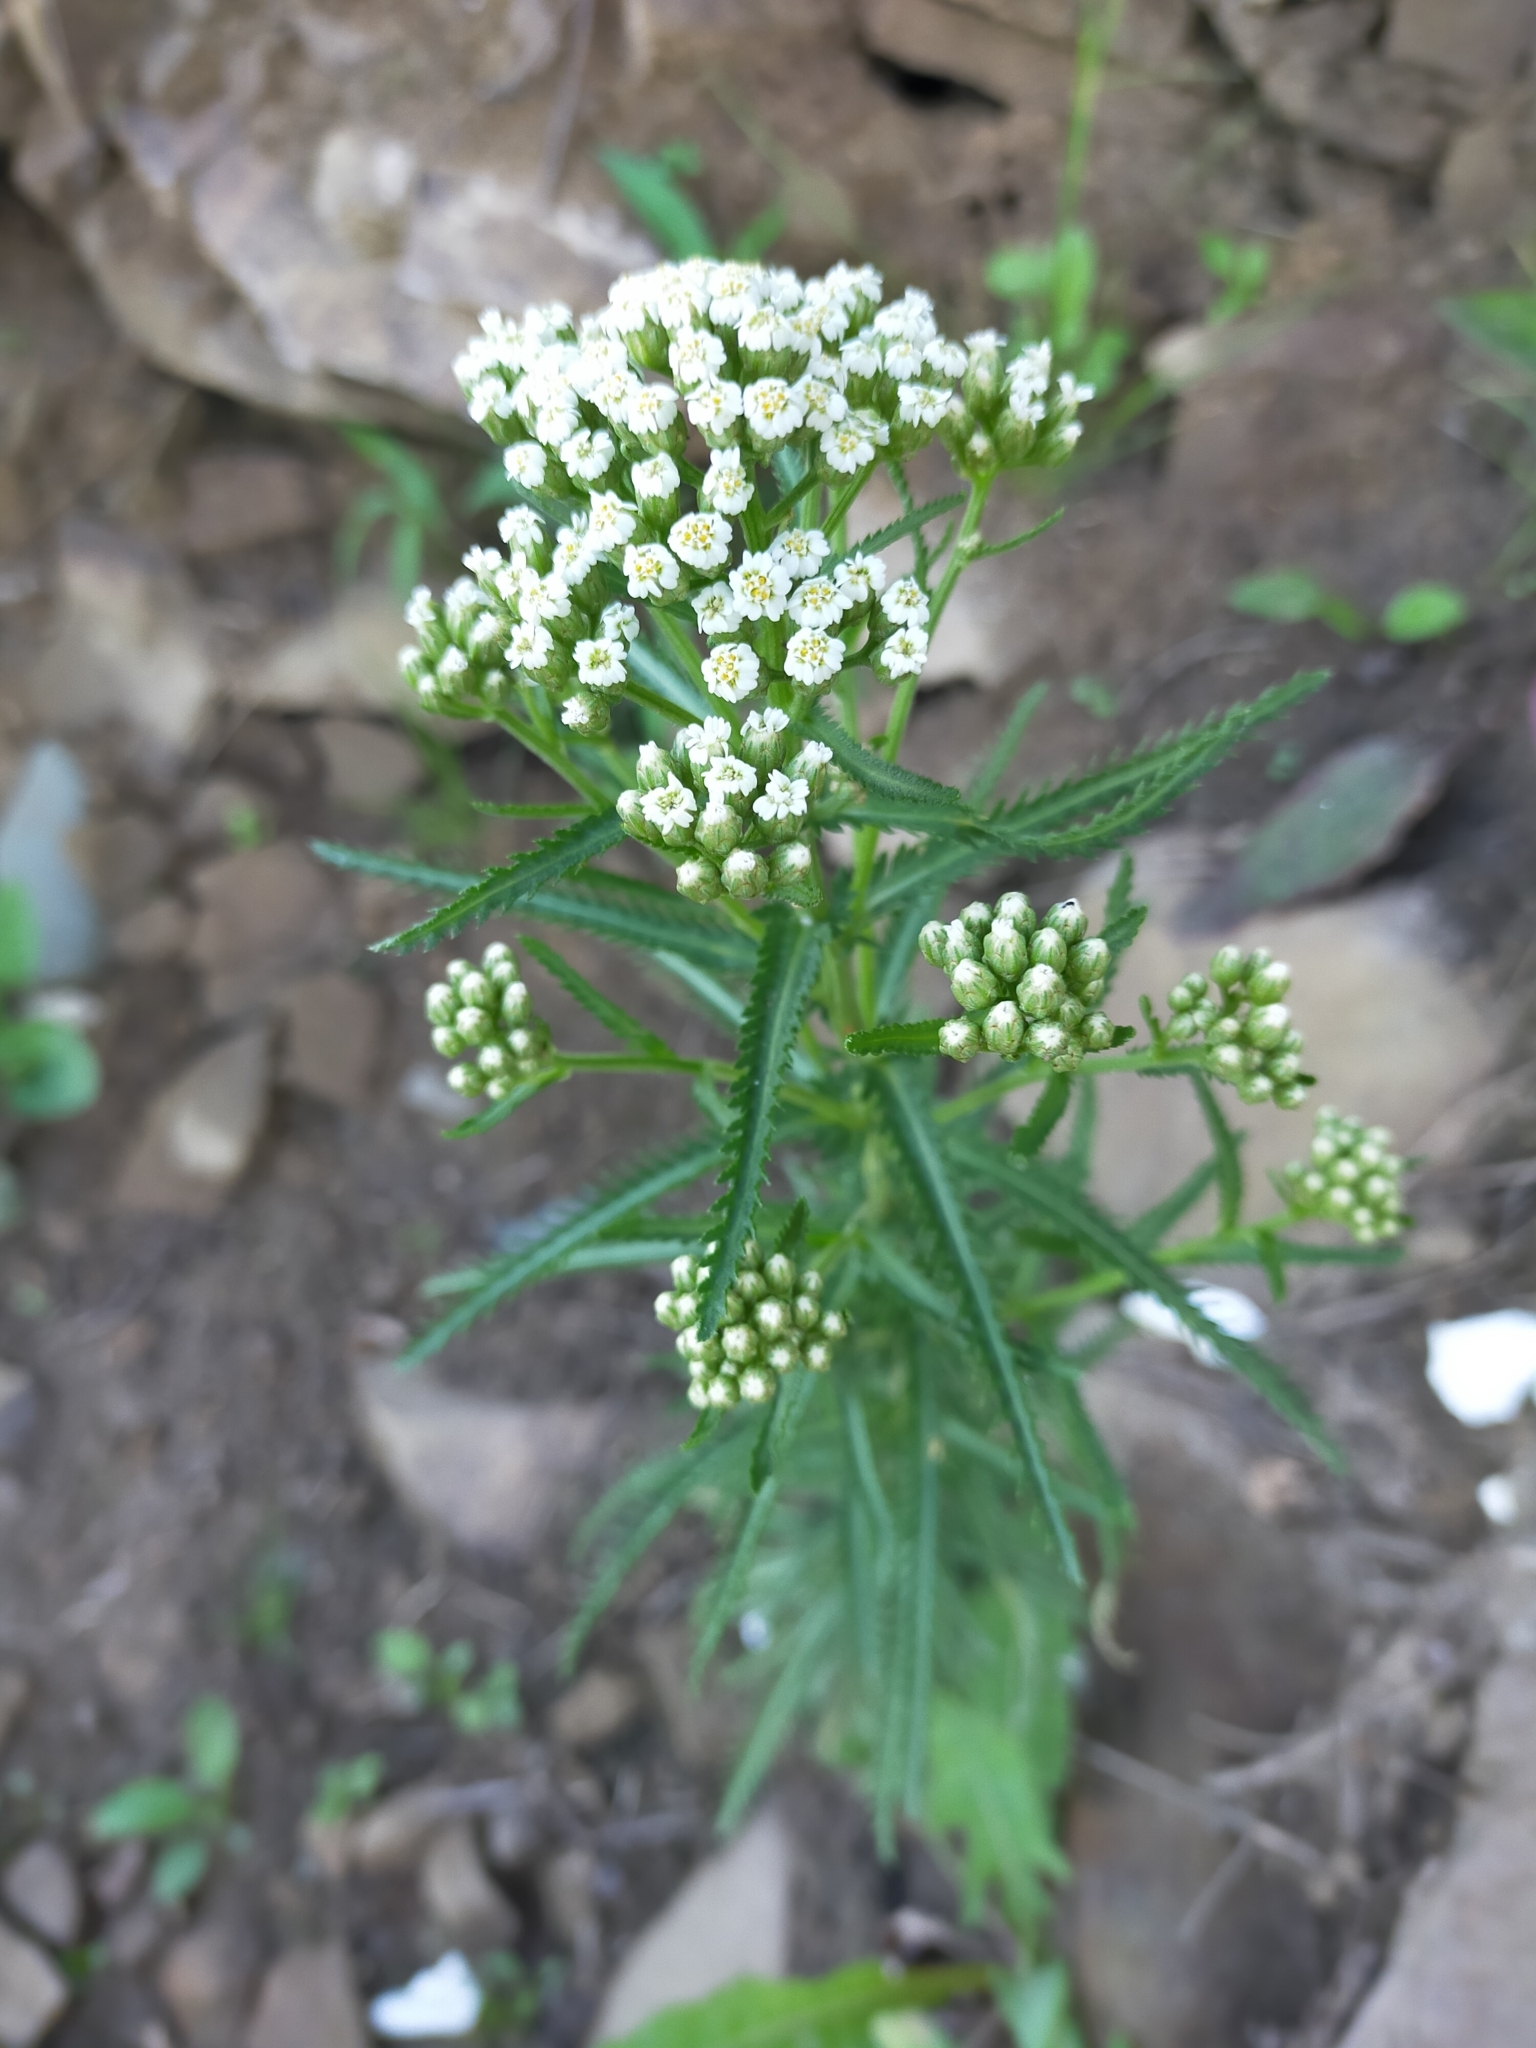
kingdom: Plantae
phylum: Tracheophyta
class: Magnoliopsida
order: Asterales
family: Asteraceae
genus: Achillea
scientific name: Achillea ptarmicoides
